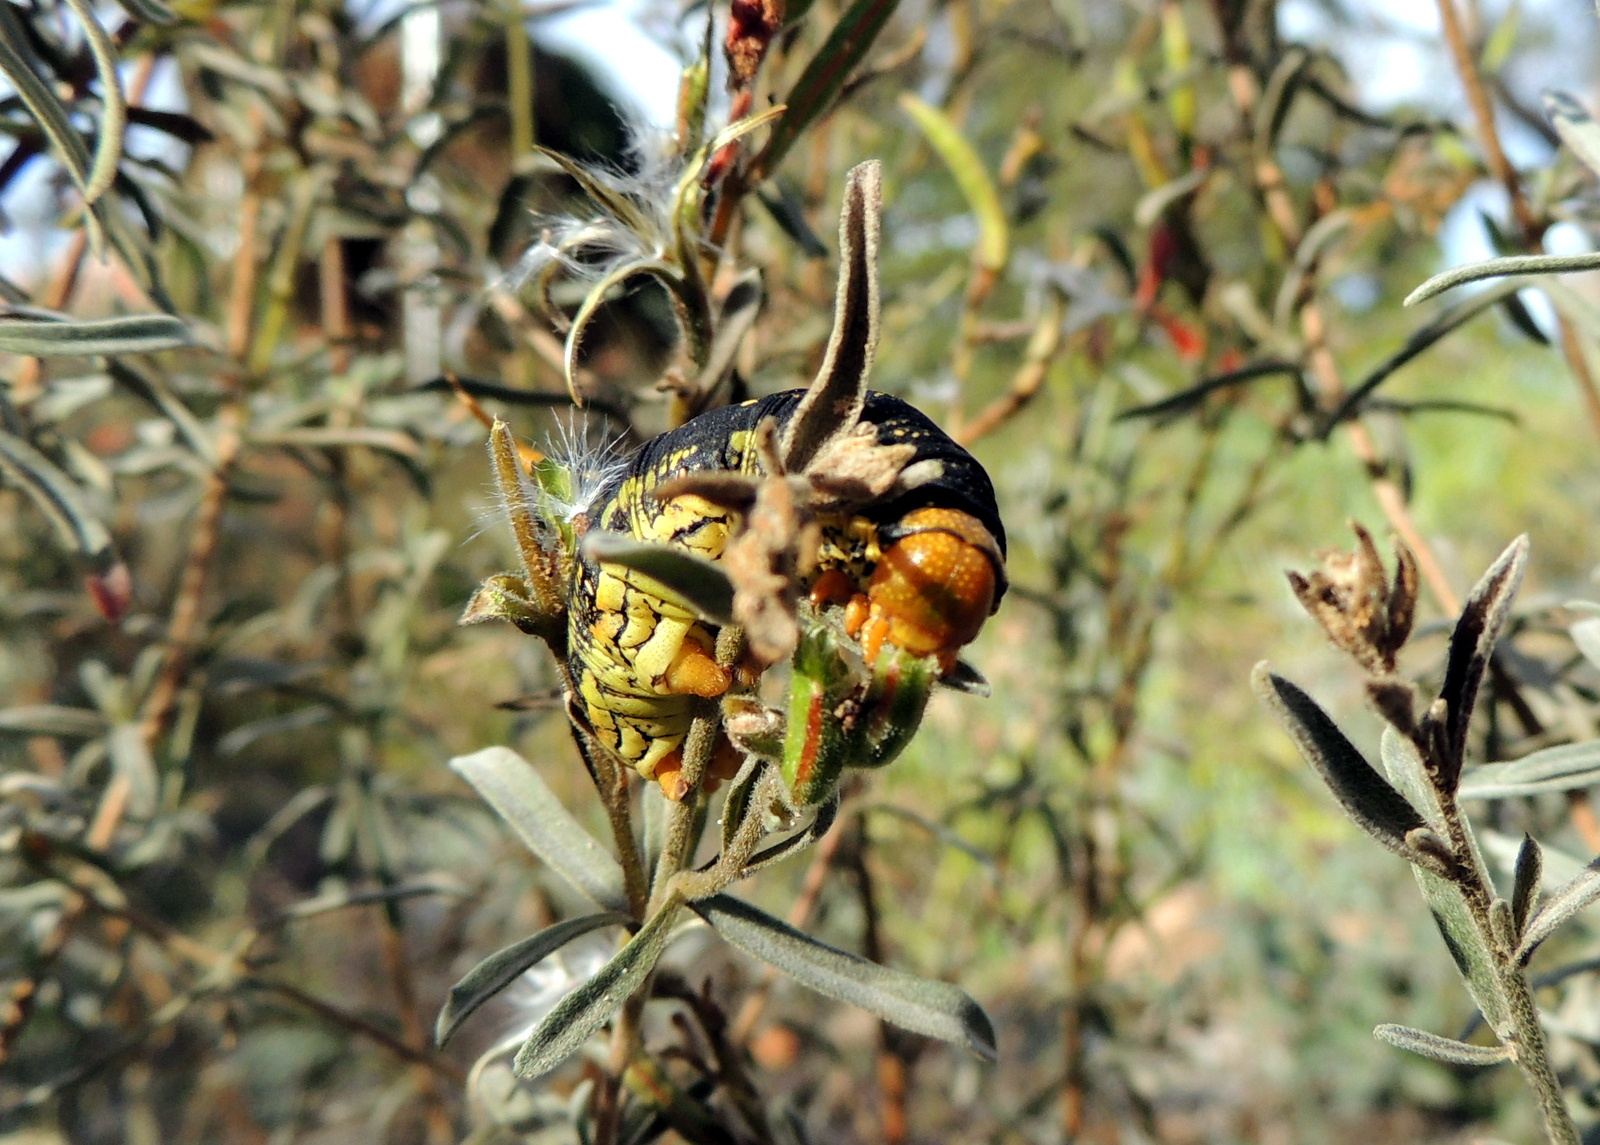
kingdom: Animalia
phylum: Arthropoda
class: Insecta
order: Lepidoptera
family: Sphingidae
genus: Hyles
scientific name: Hyles lineata
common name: White-lined sphinx
